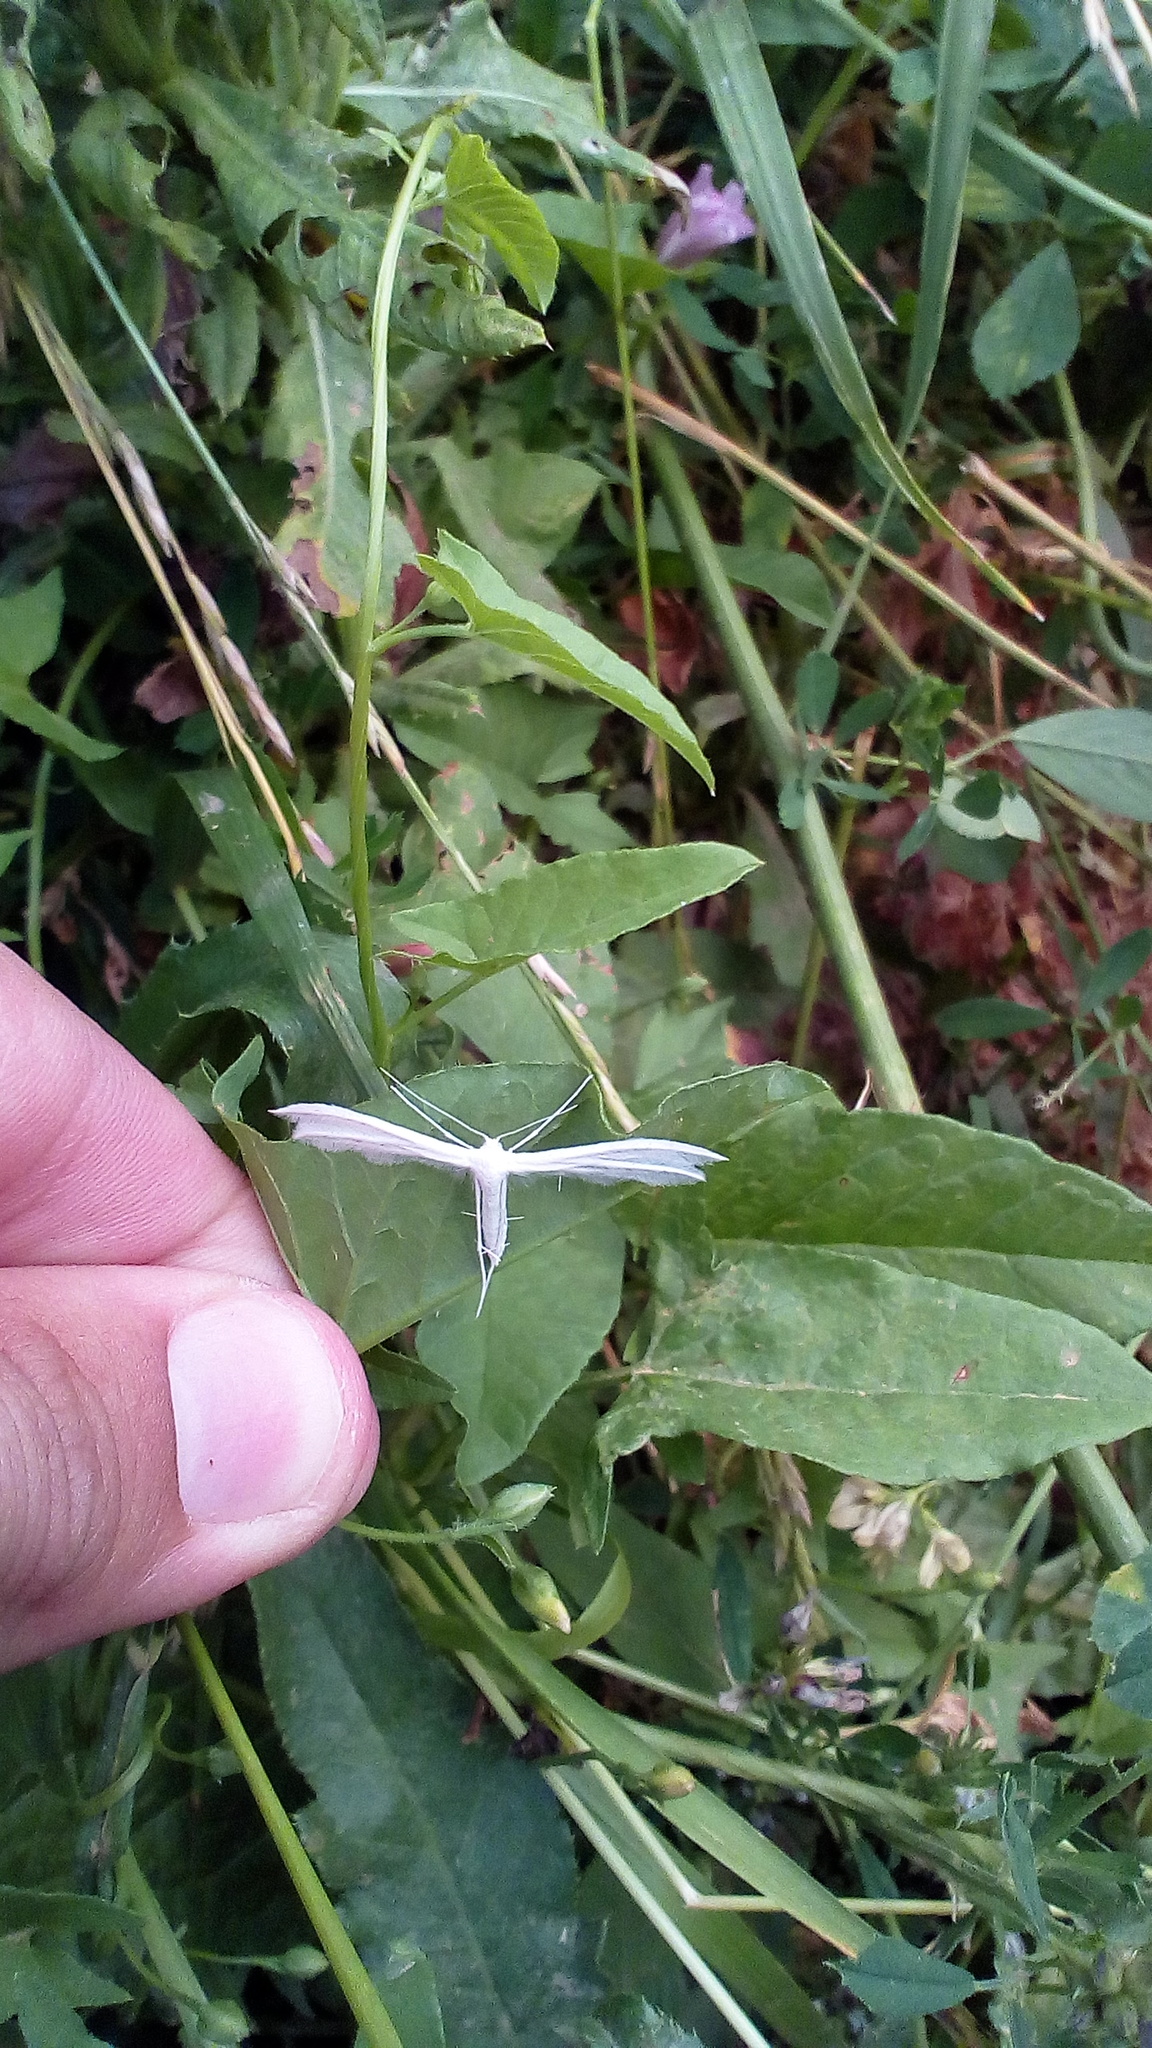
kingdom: Animalia
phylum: Arthropoda
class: Insecta
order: Lepidoptera
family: Pterophoridae
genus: Pterophorus
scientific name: Pterophorus pentadactyla
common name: White plume moth
